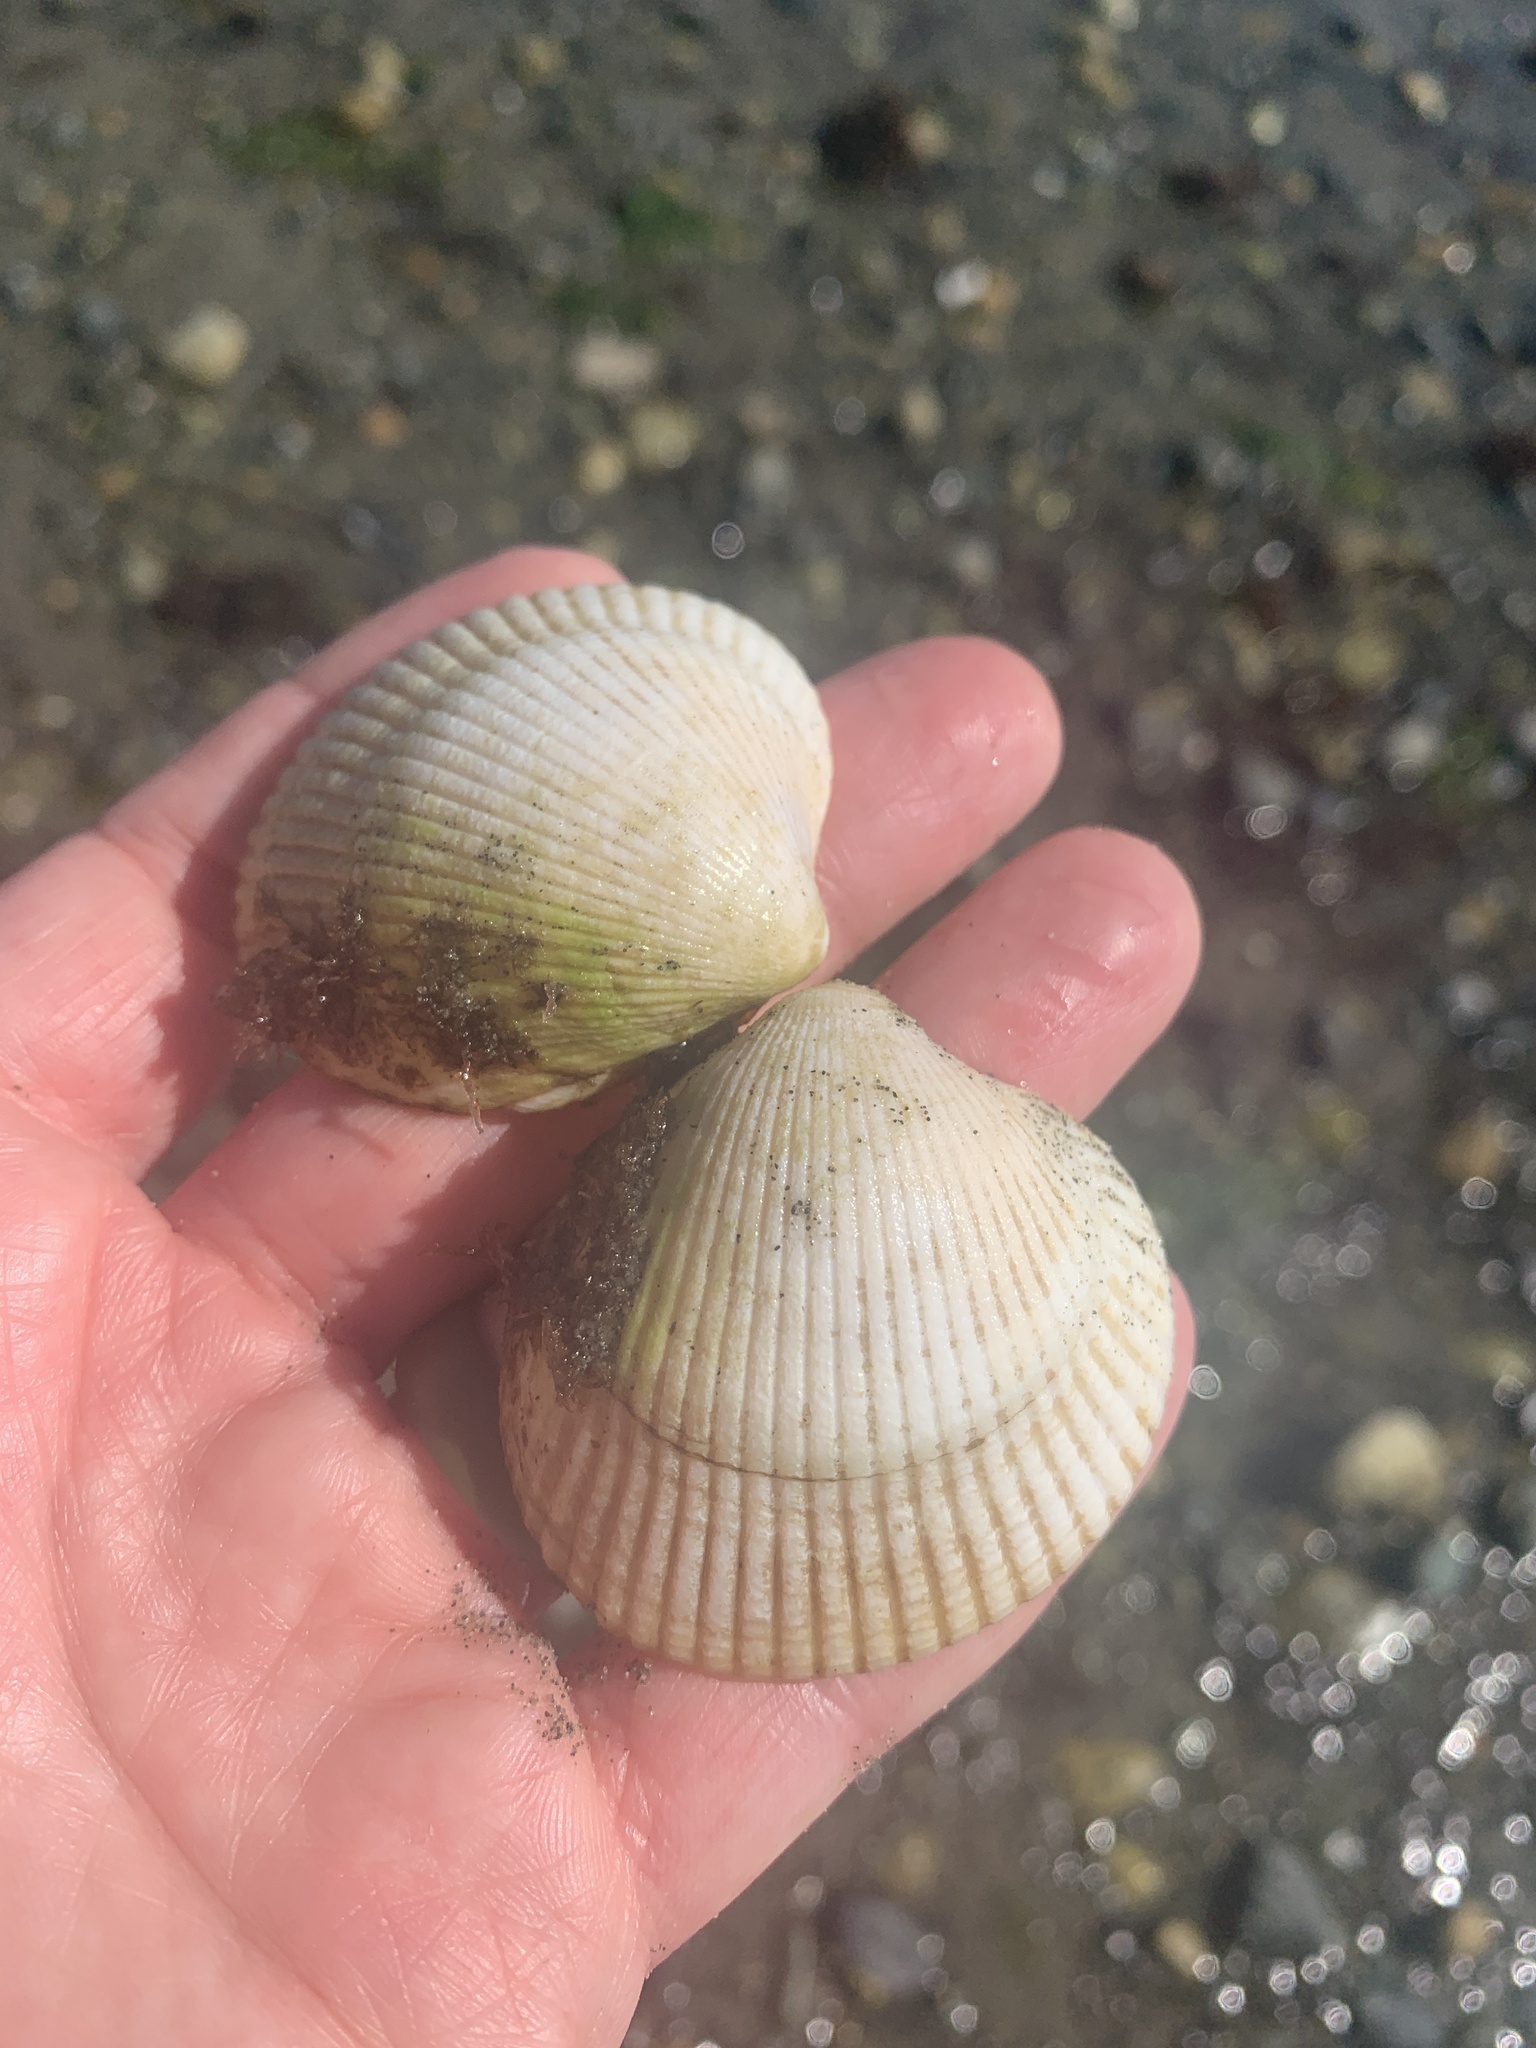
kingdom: Animalia
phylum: Mollusca
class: Bivalvia
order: Cardiida
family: Cardiidae
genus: Clinocardium
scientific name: Clinocardium nuttallii
